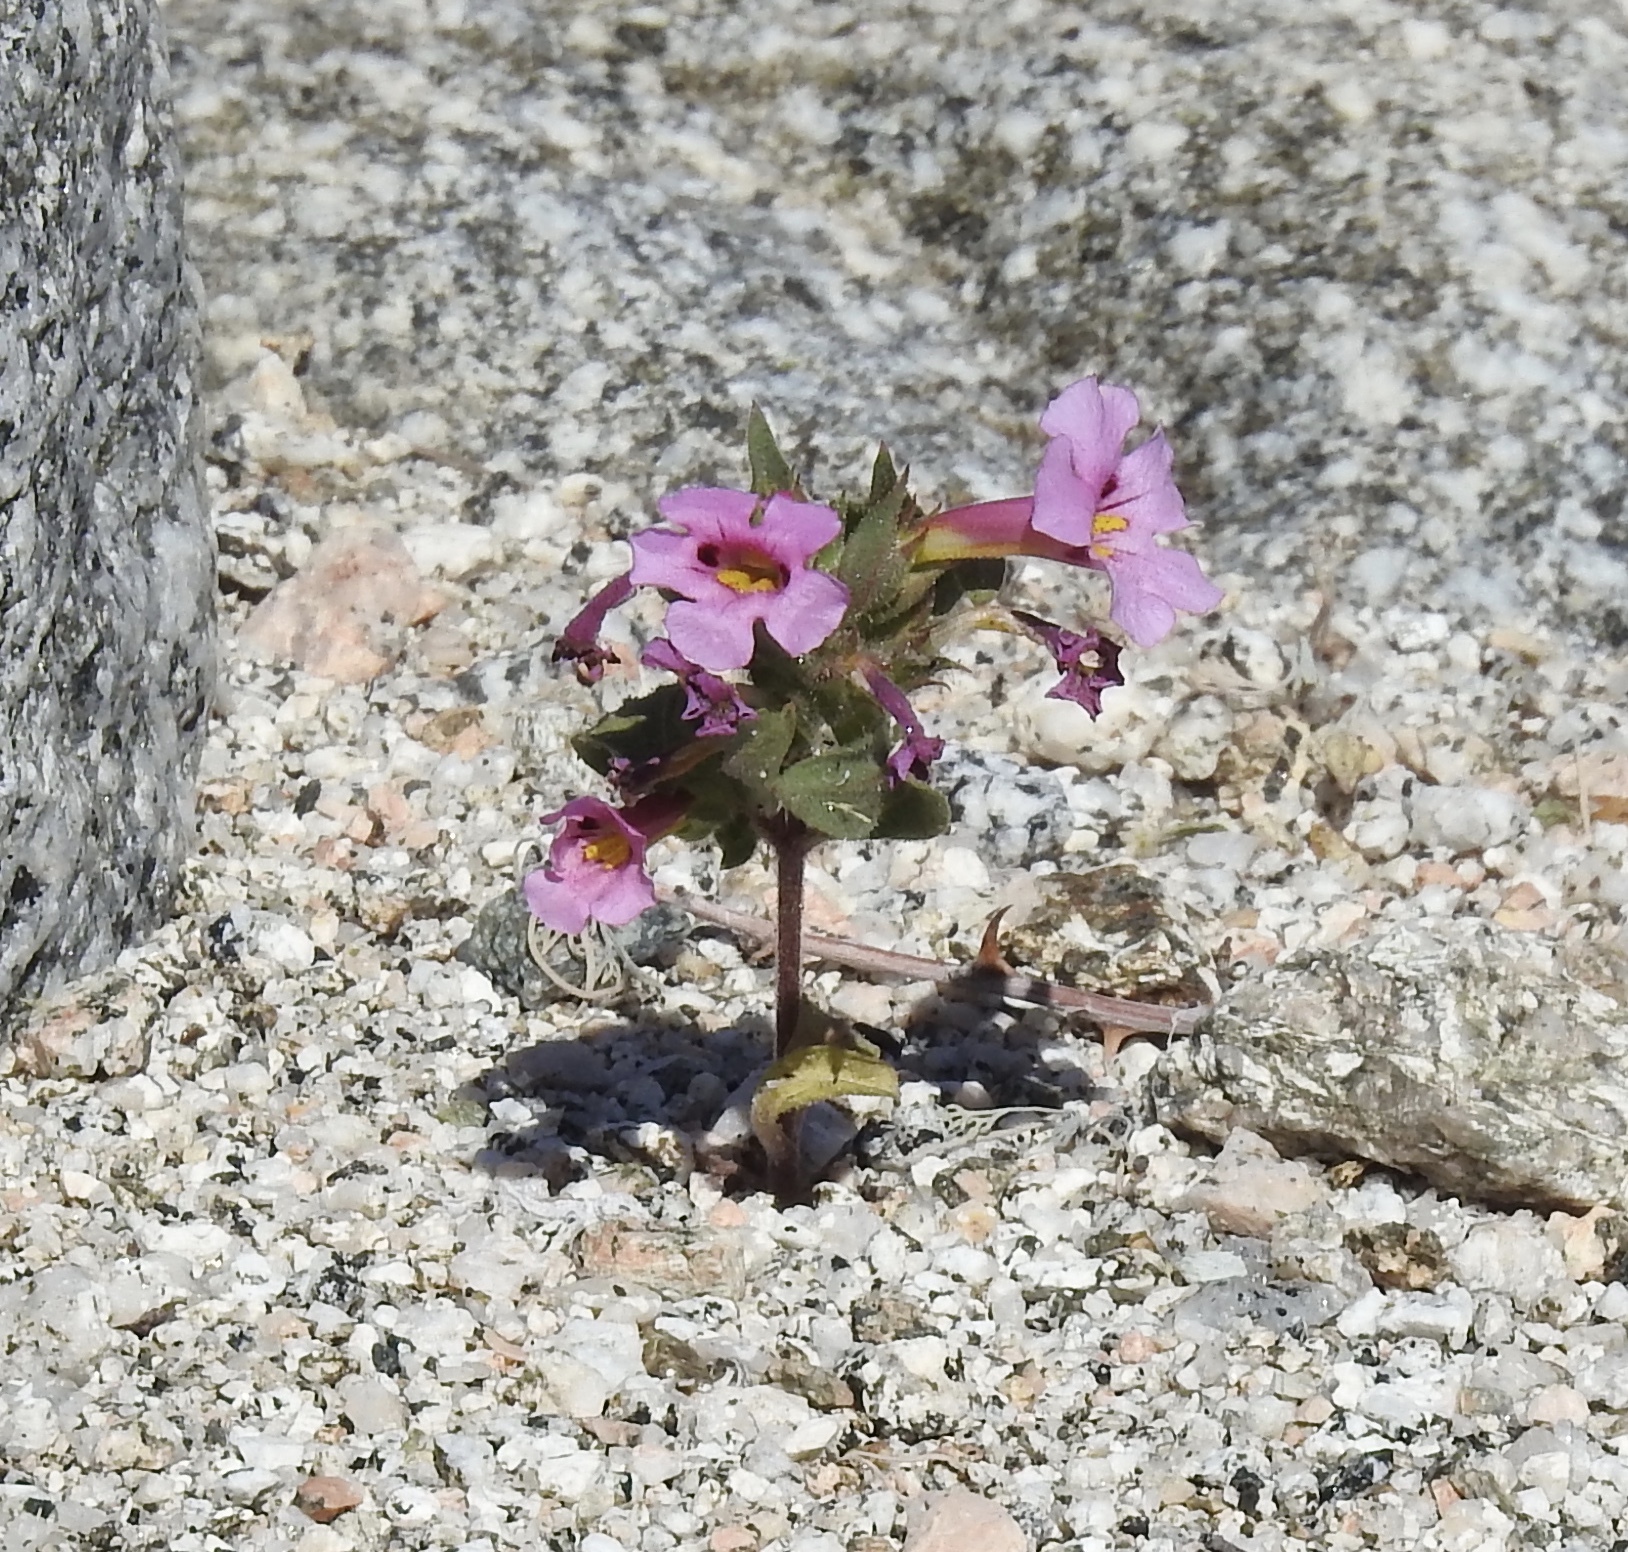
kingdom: Plantae
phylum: Tracheophyta
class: Magnoliopsida
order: Lamiales
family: Phrymaceae
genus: Diplacus
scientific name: Diplacus bigelovii
